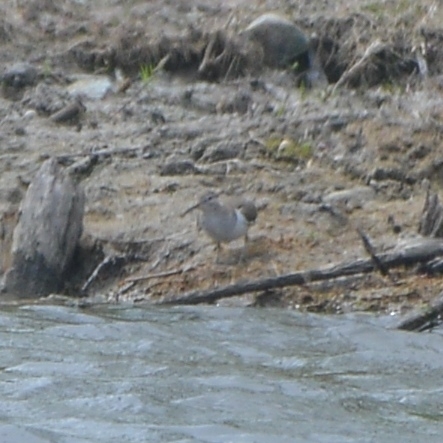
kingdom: Animalia
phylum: Chordata
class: Aves
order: Charadriiformes
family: Scolopacidae
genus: Actitis
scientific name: Actitis hypoleucos
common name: Common sandpiper
